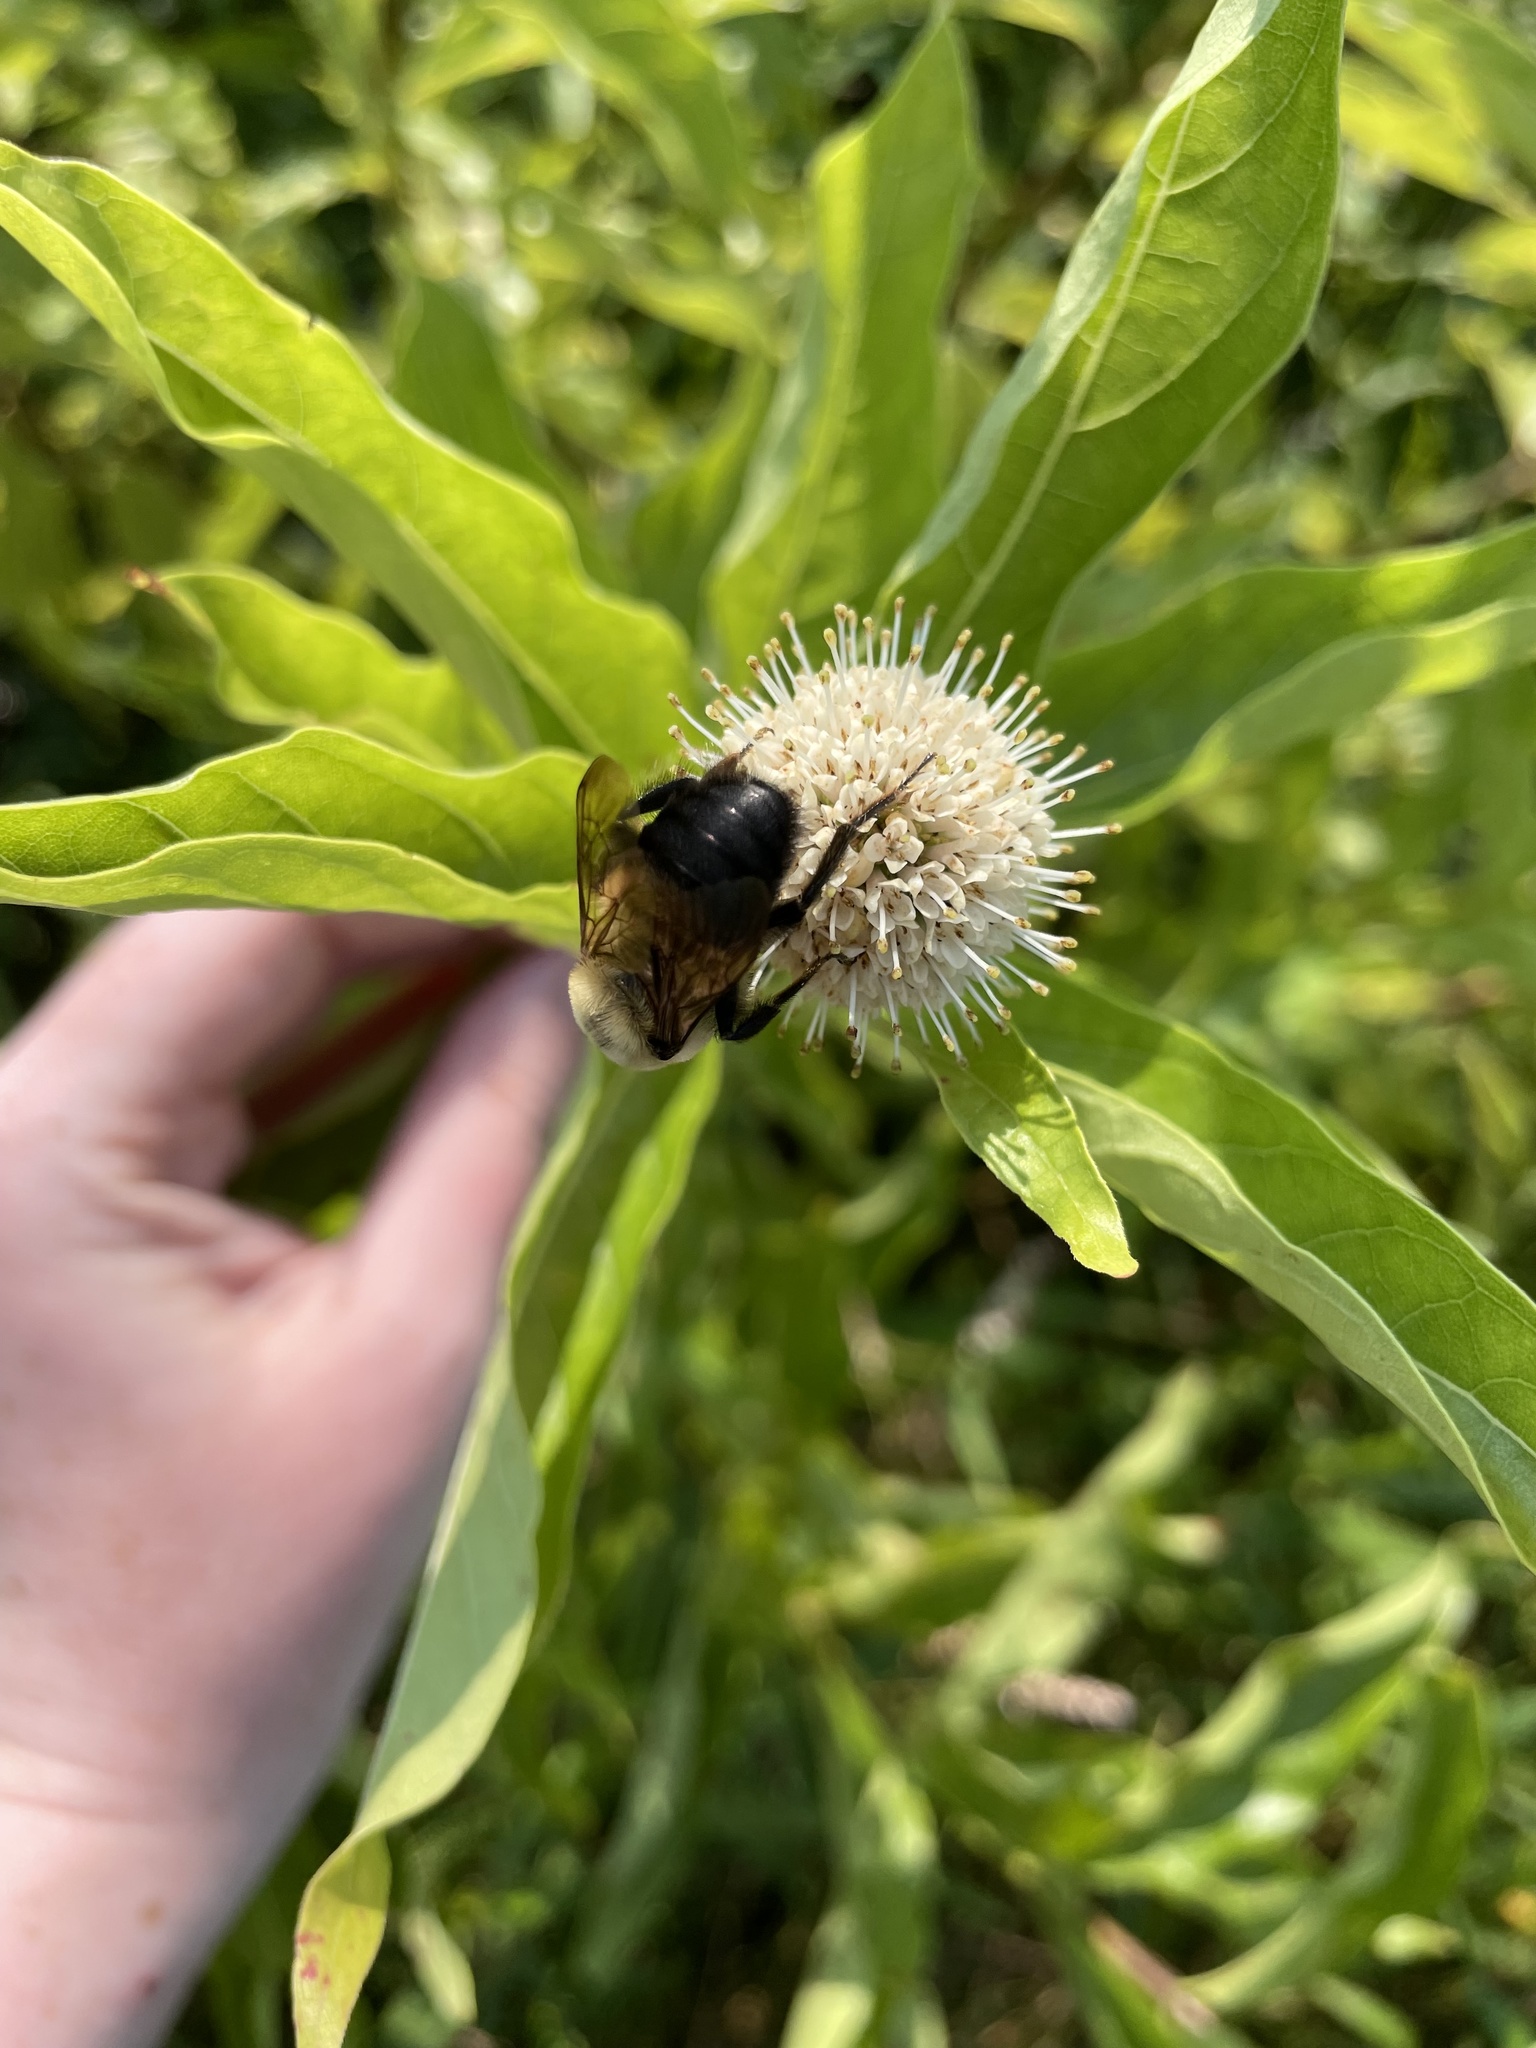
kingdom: Animalia
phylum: Arthropoda
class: Insecta
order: Hymenoptera
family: Apidae
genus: Bombus
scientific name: Bombus griseocollis
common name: Brown-belted bumble bee
